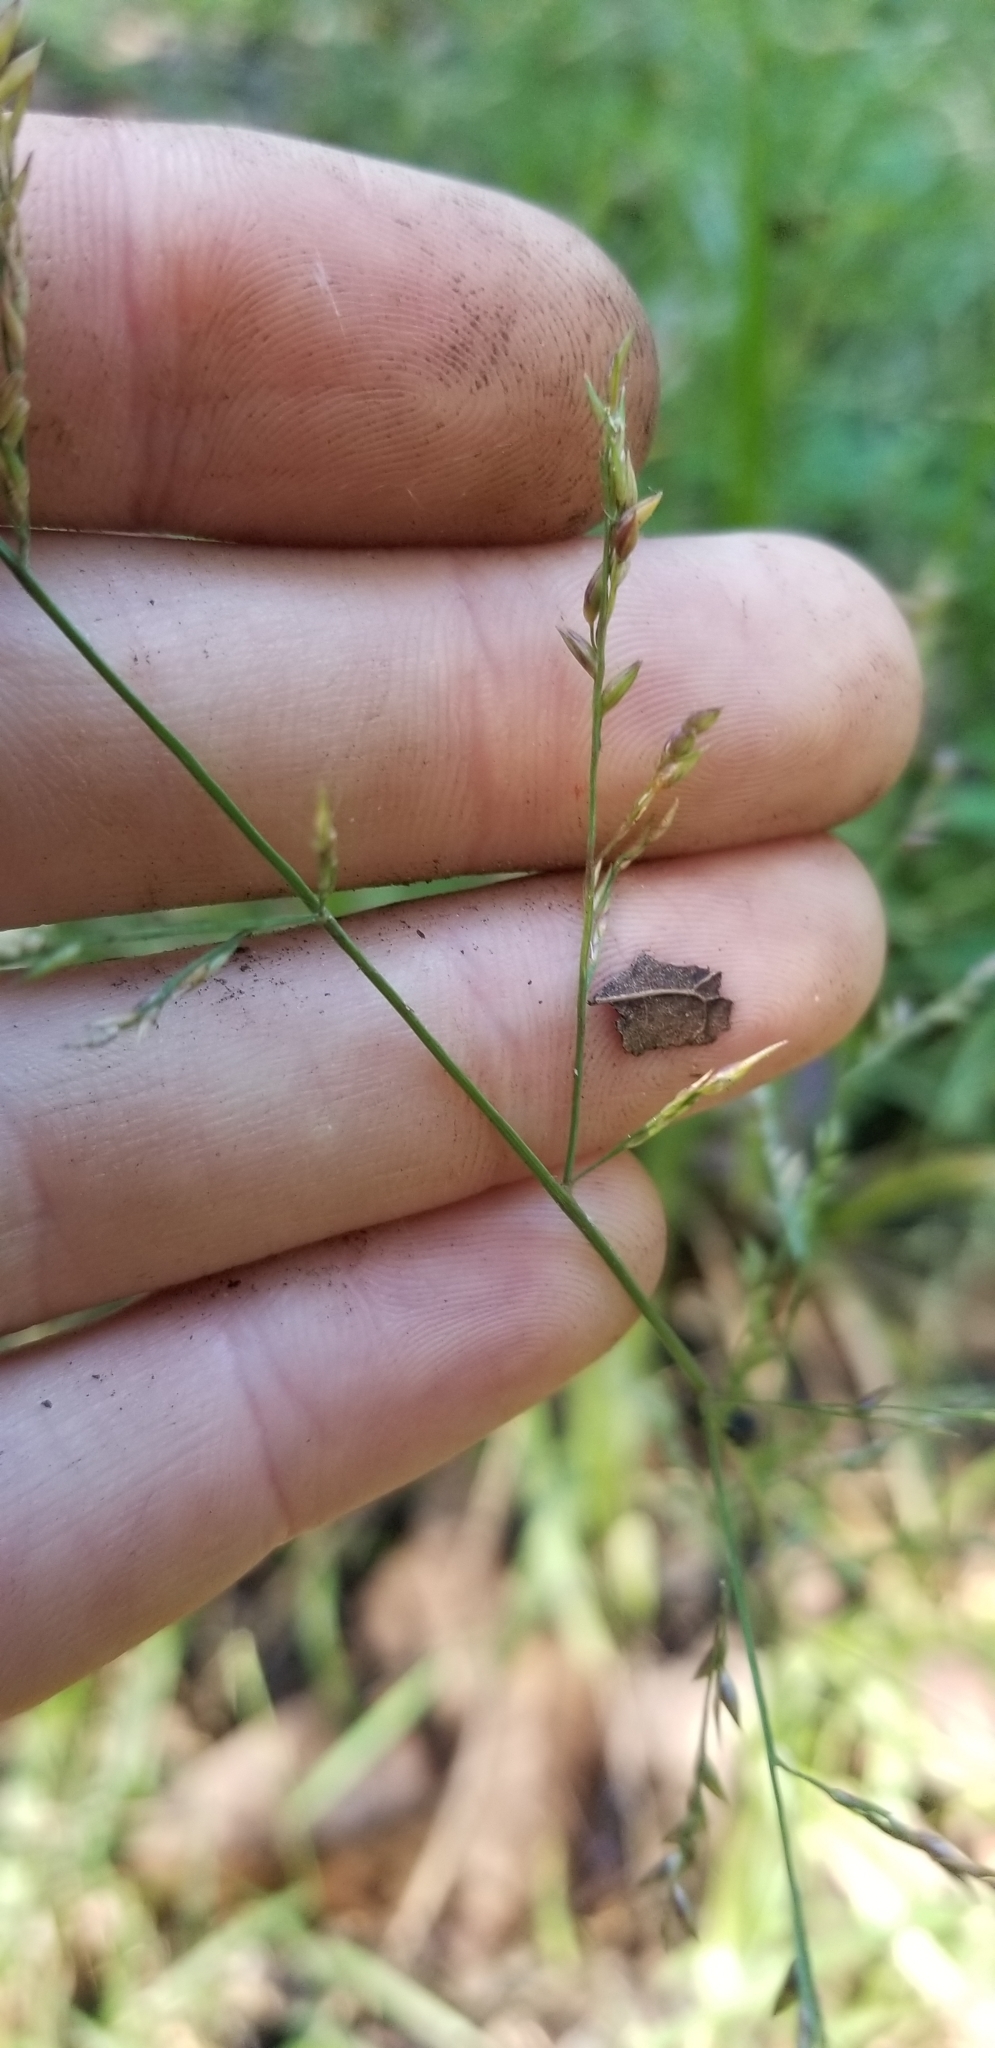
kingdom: Plantae
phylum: Tracheophyta
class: Liliopsida
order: Poales
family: Poaceae
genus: Coleataenia
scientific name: Coleataenia anceps
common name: Beaked panic grass
